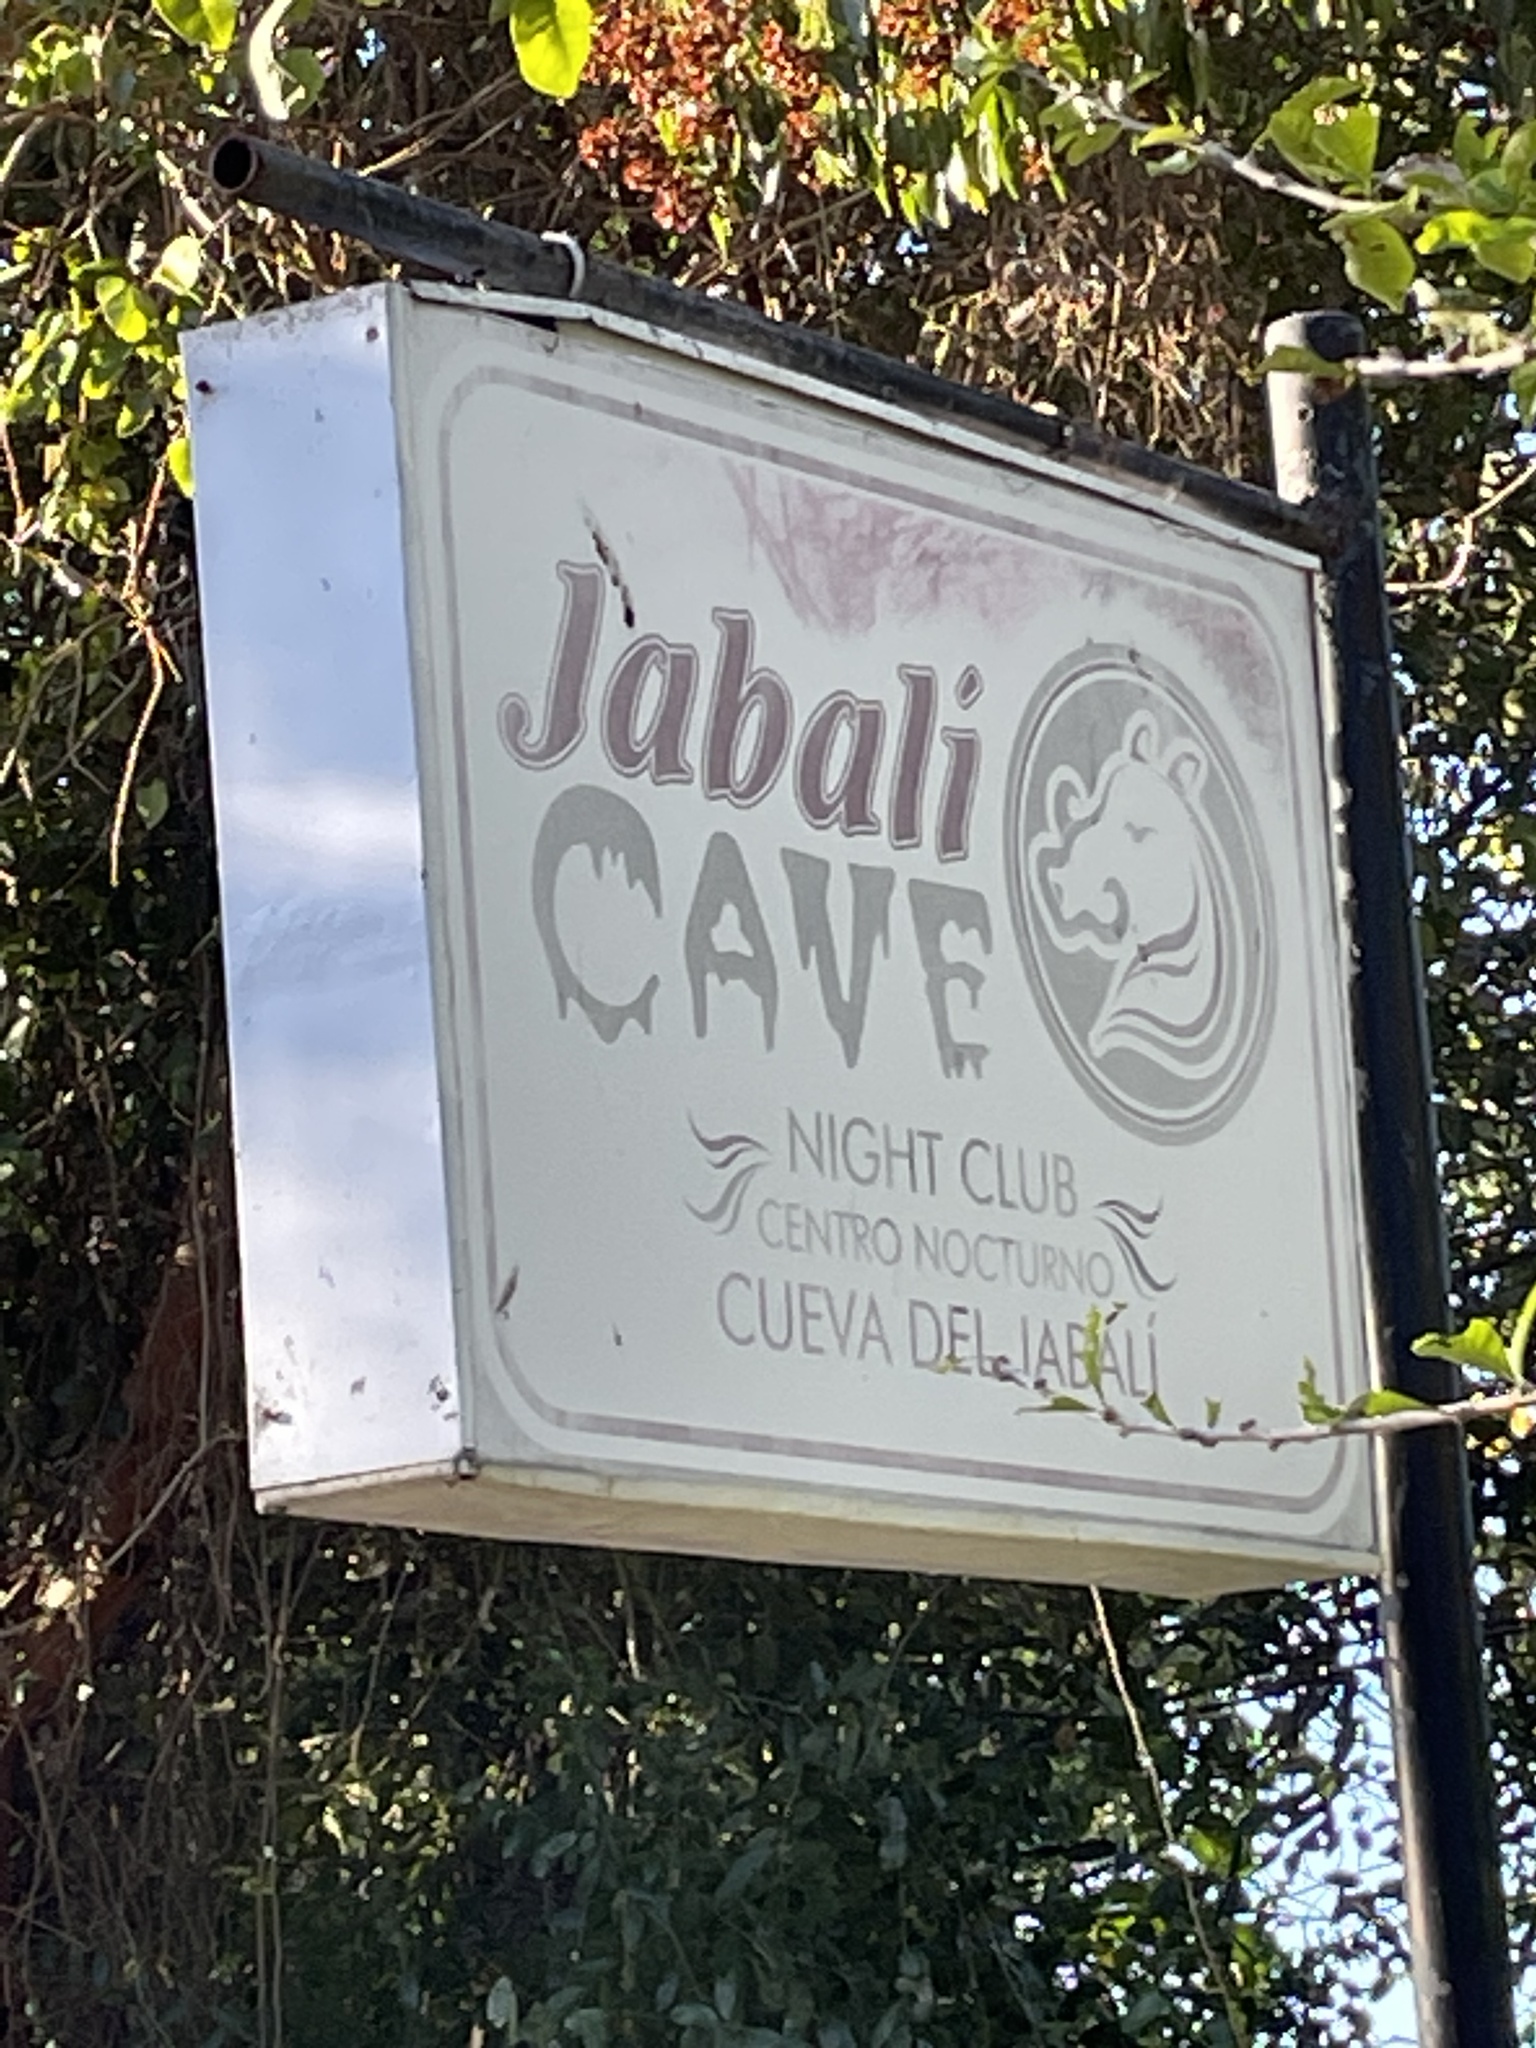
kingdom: Animalia
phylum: Chordata
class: Mammalia
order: Chiroptera
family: Phyllostomidae
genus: Macrotus
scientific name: Macrotus waterhousii
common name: Waterhouse's leaf-nosed bat
